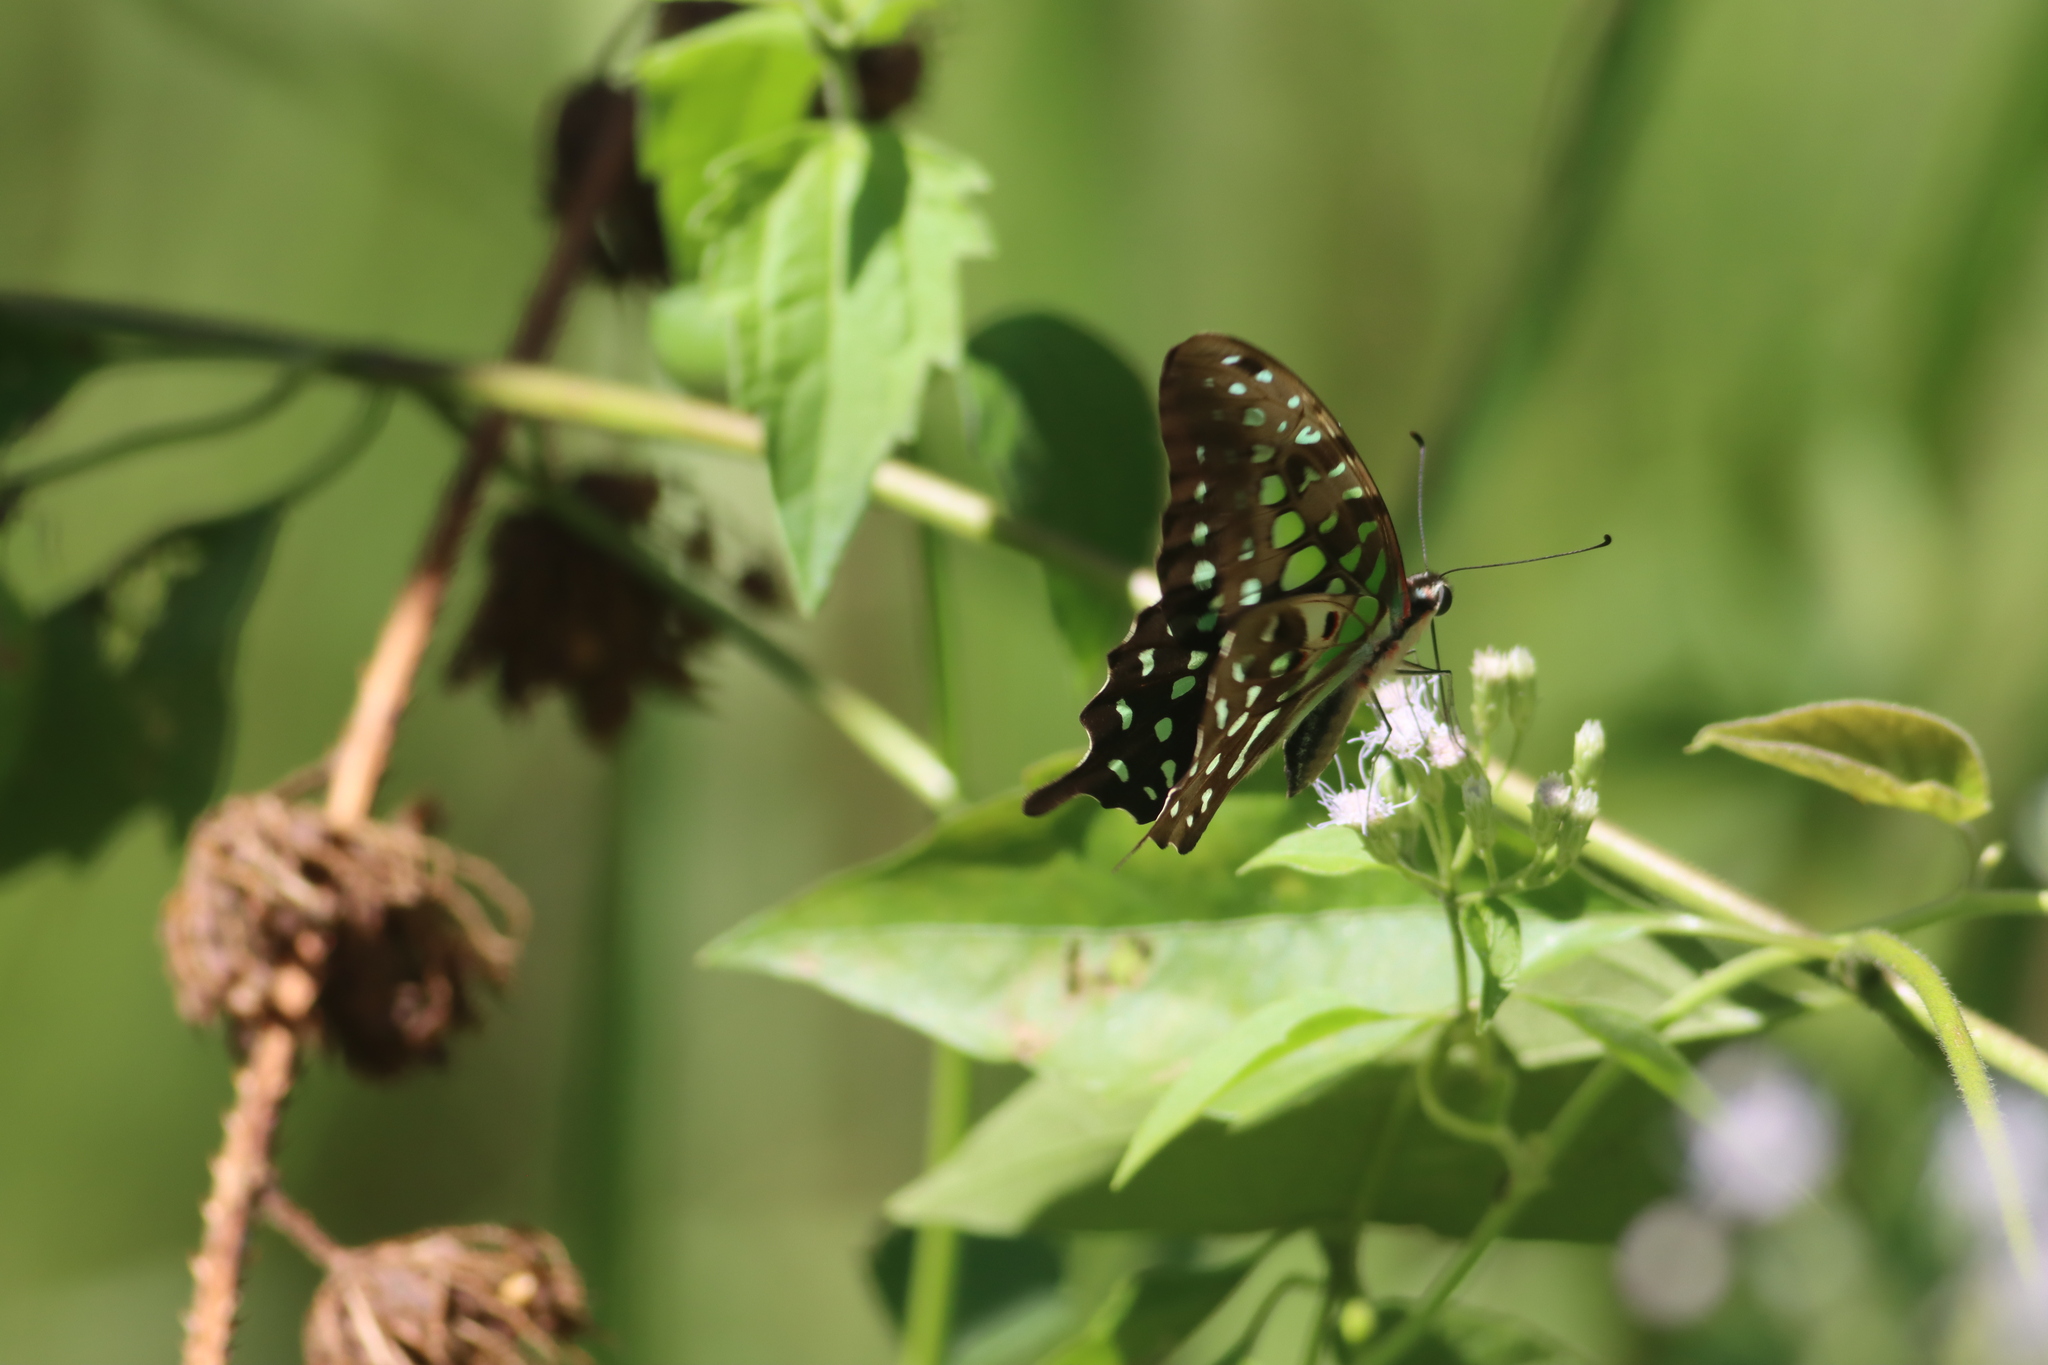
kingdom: Animalia
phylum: Arthropoda
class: Insecta
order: Lepidoptera
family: Papilionidae
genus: Graphium
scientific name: Graphium agamemnon
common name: Tailed jay
